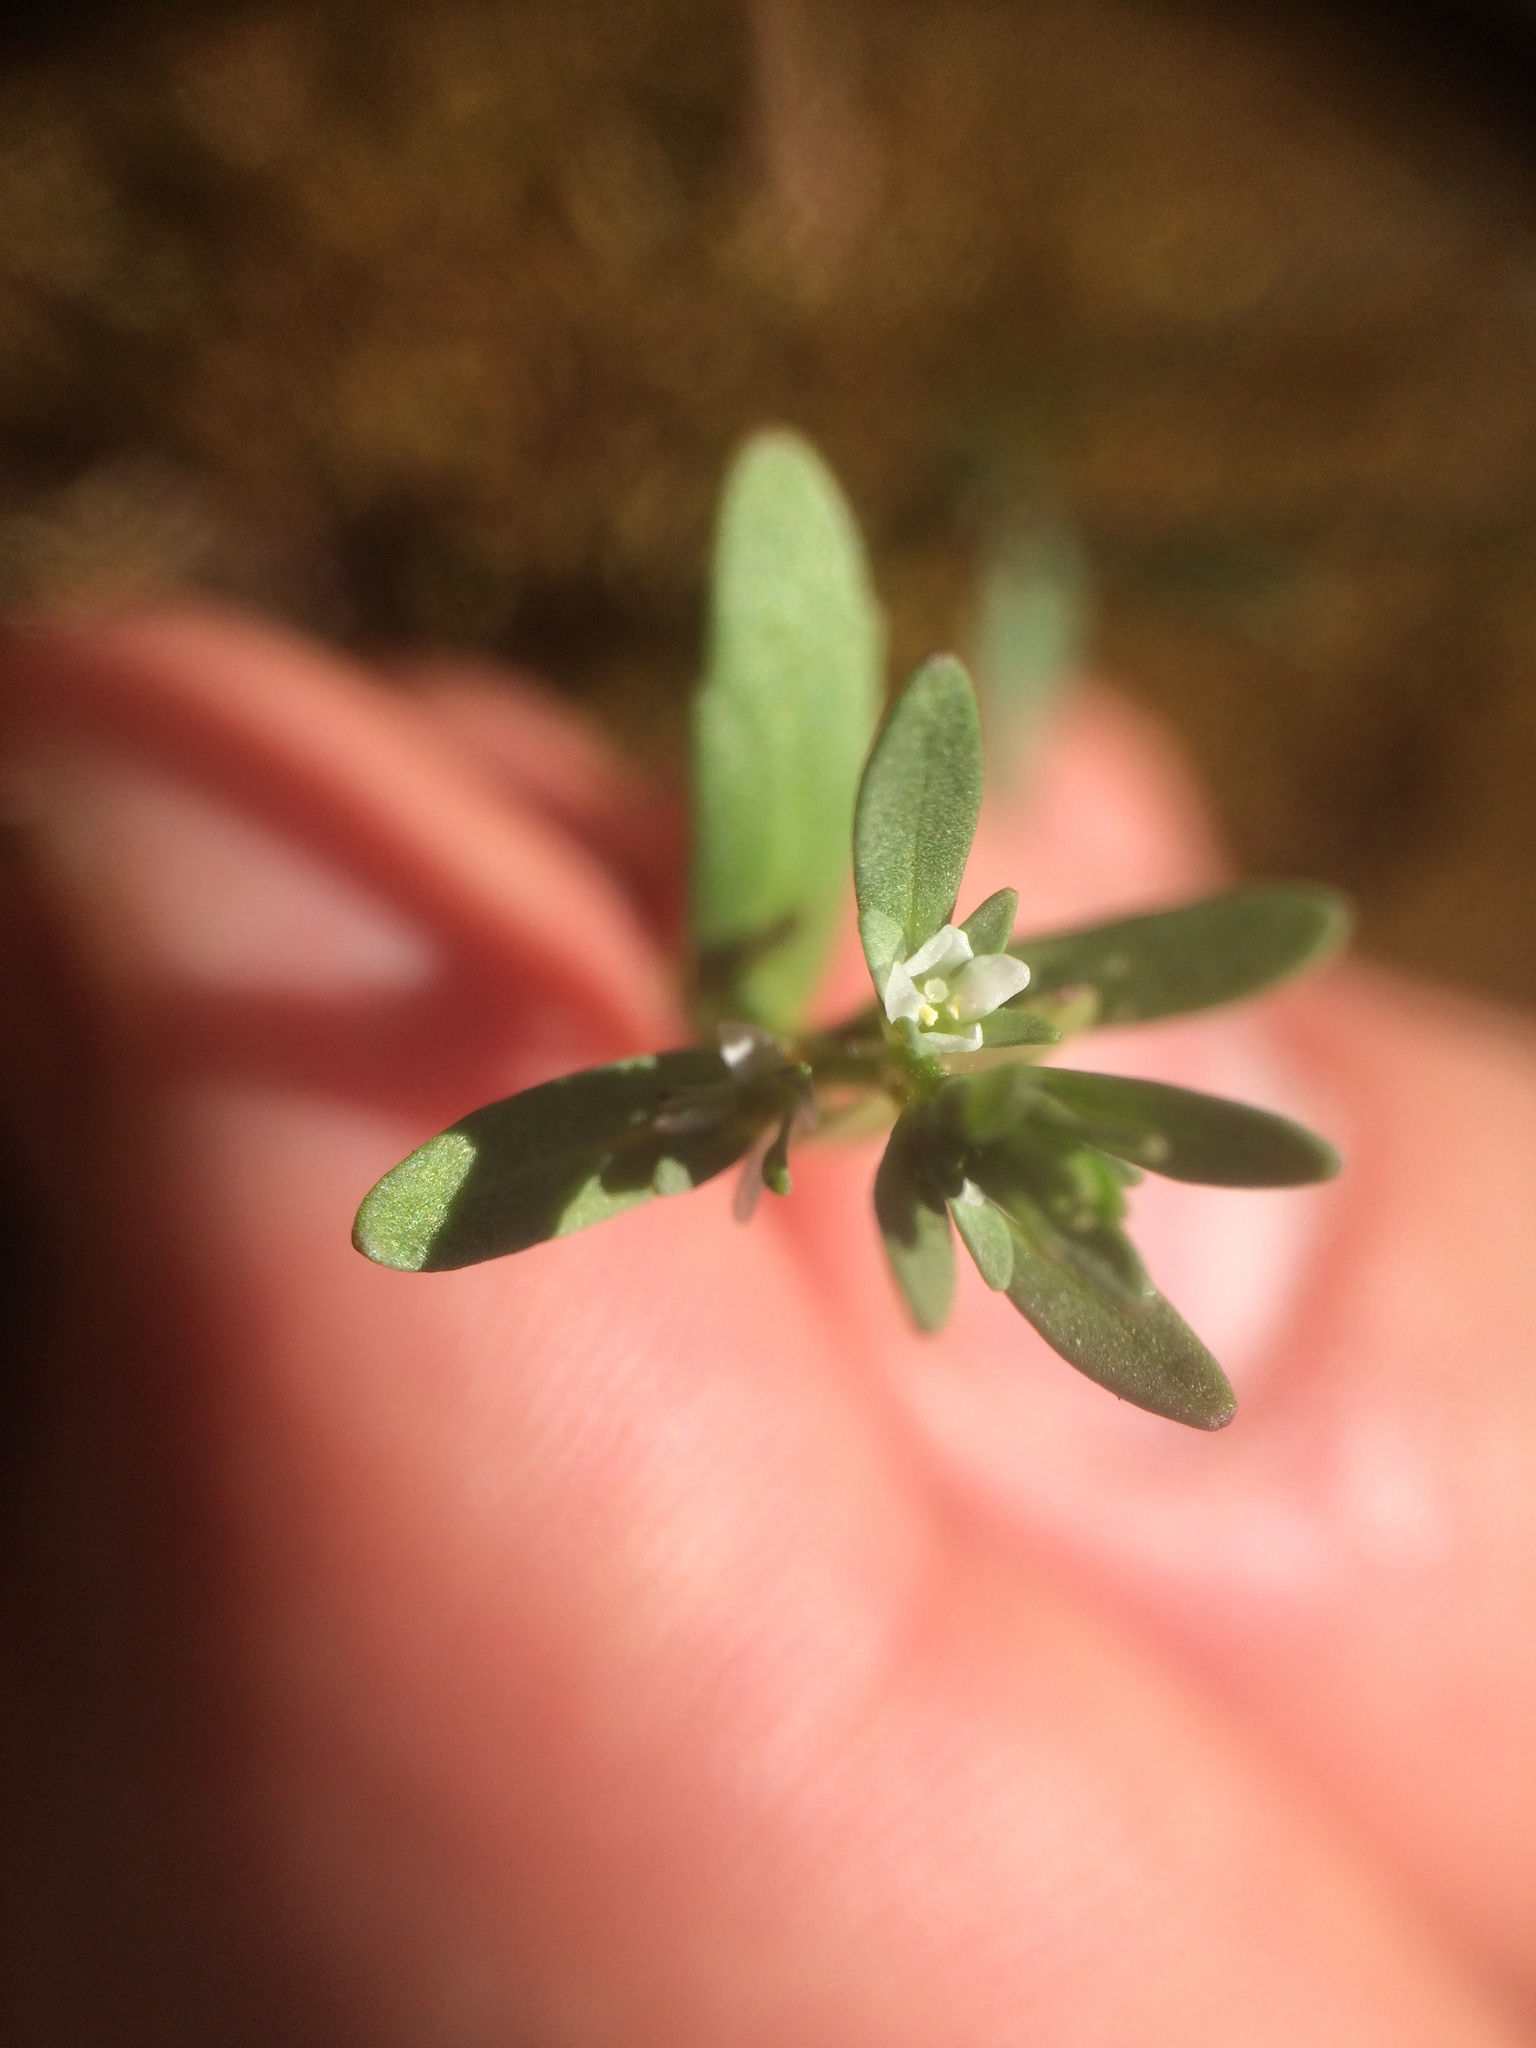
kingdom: Plantae
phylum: Tracheophyta
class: Magnoliopsida
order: Lamiales
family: Plantaginaceae
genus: Veronica
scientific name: Veronica peregrina
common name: Neckweed
